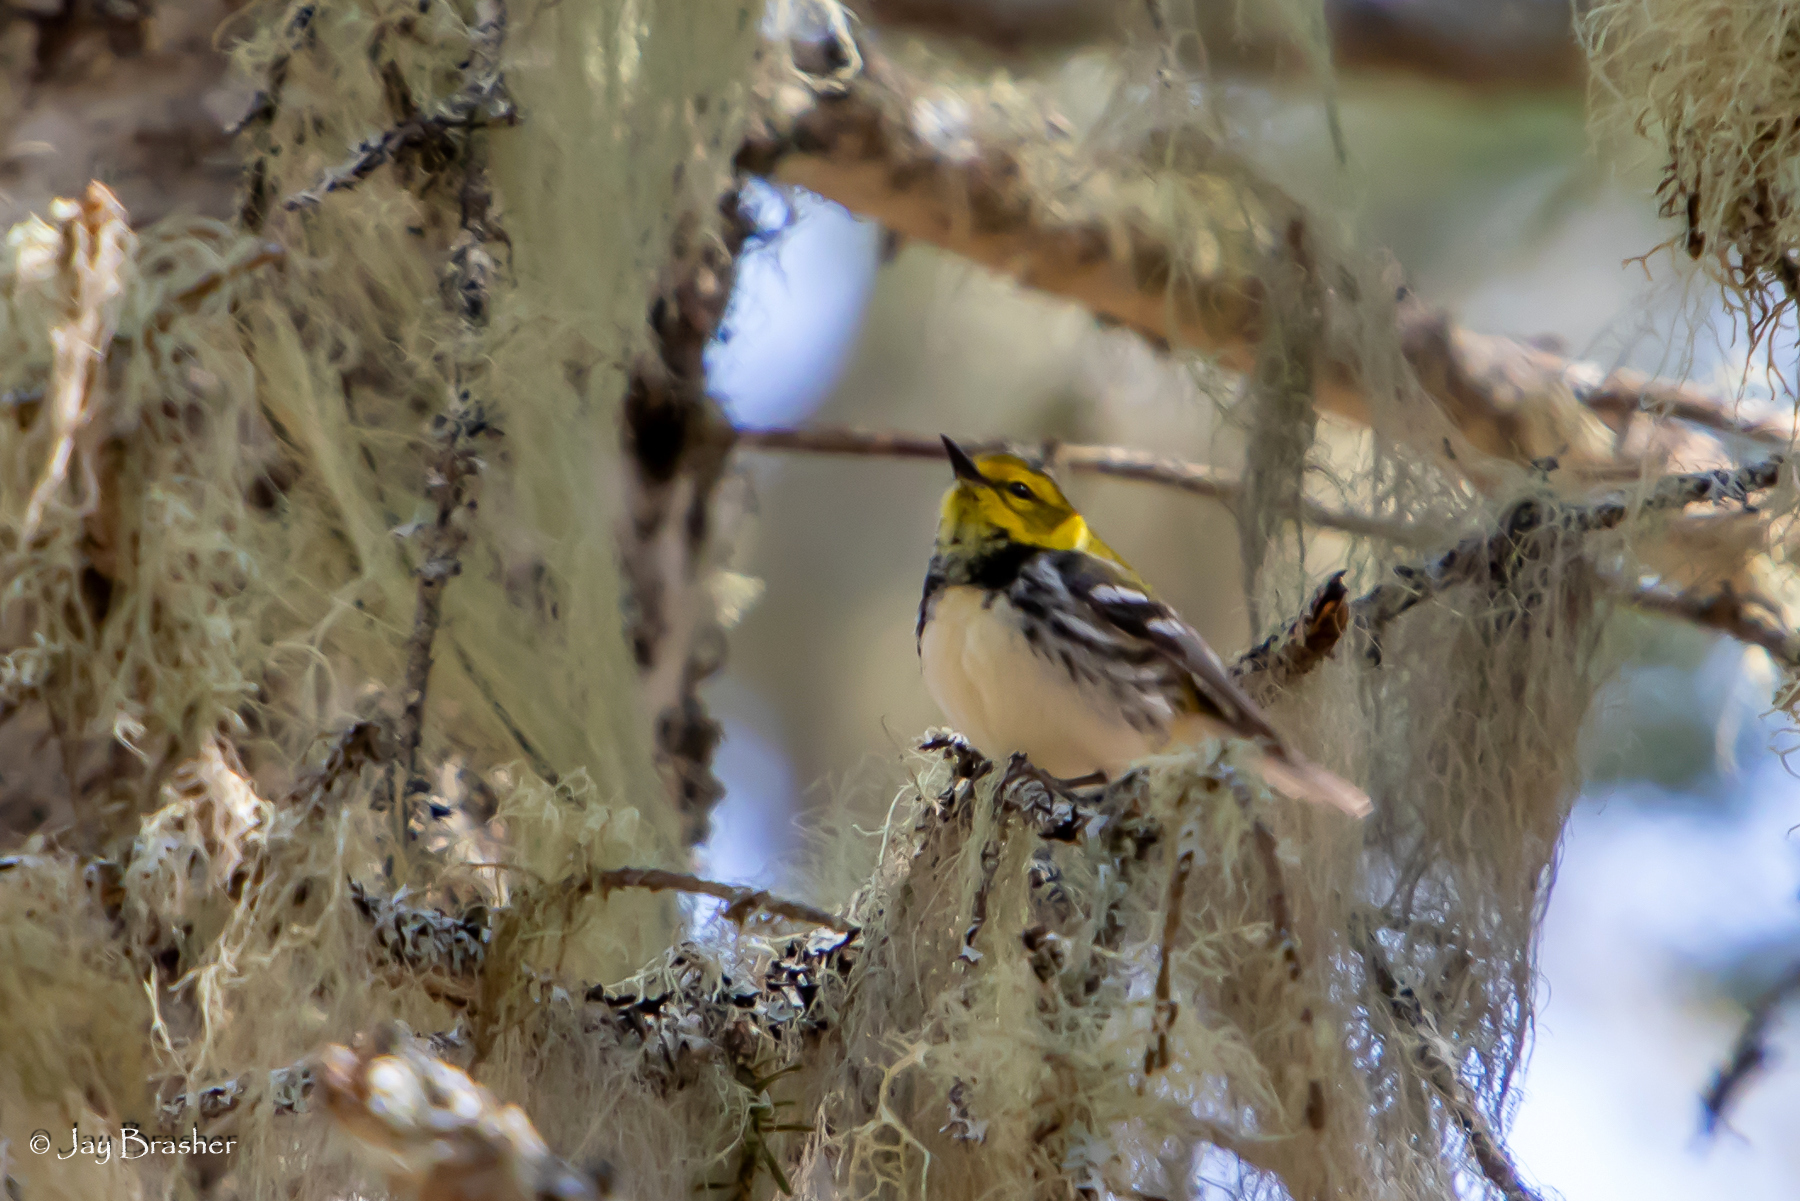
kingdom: Animalia
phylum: Chordata
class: Aves
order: Passeriformes
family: Parulidae
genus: Setophaga
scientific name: Setophaga virens
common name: Black-throated green warbler
